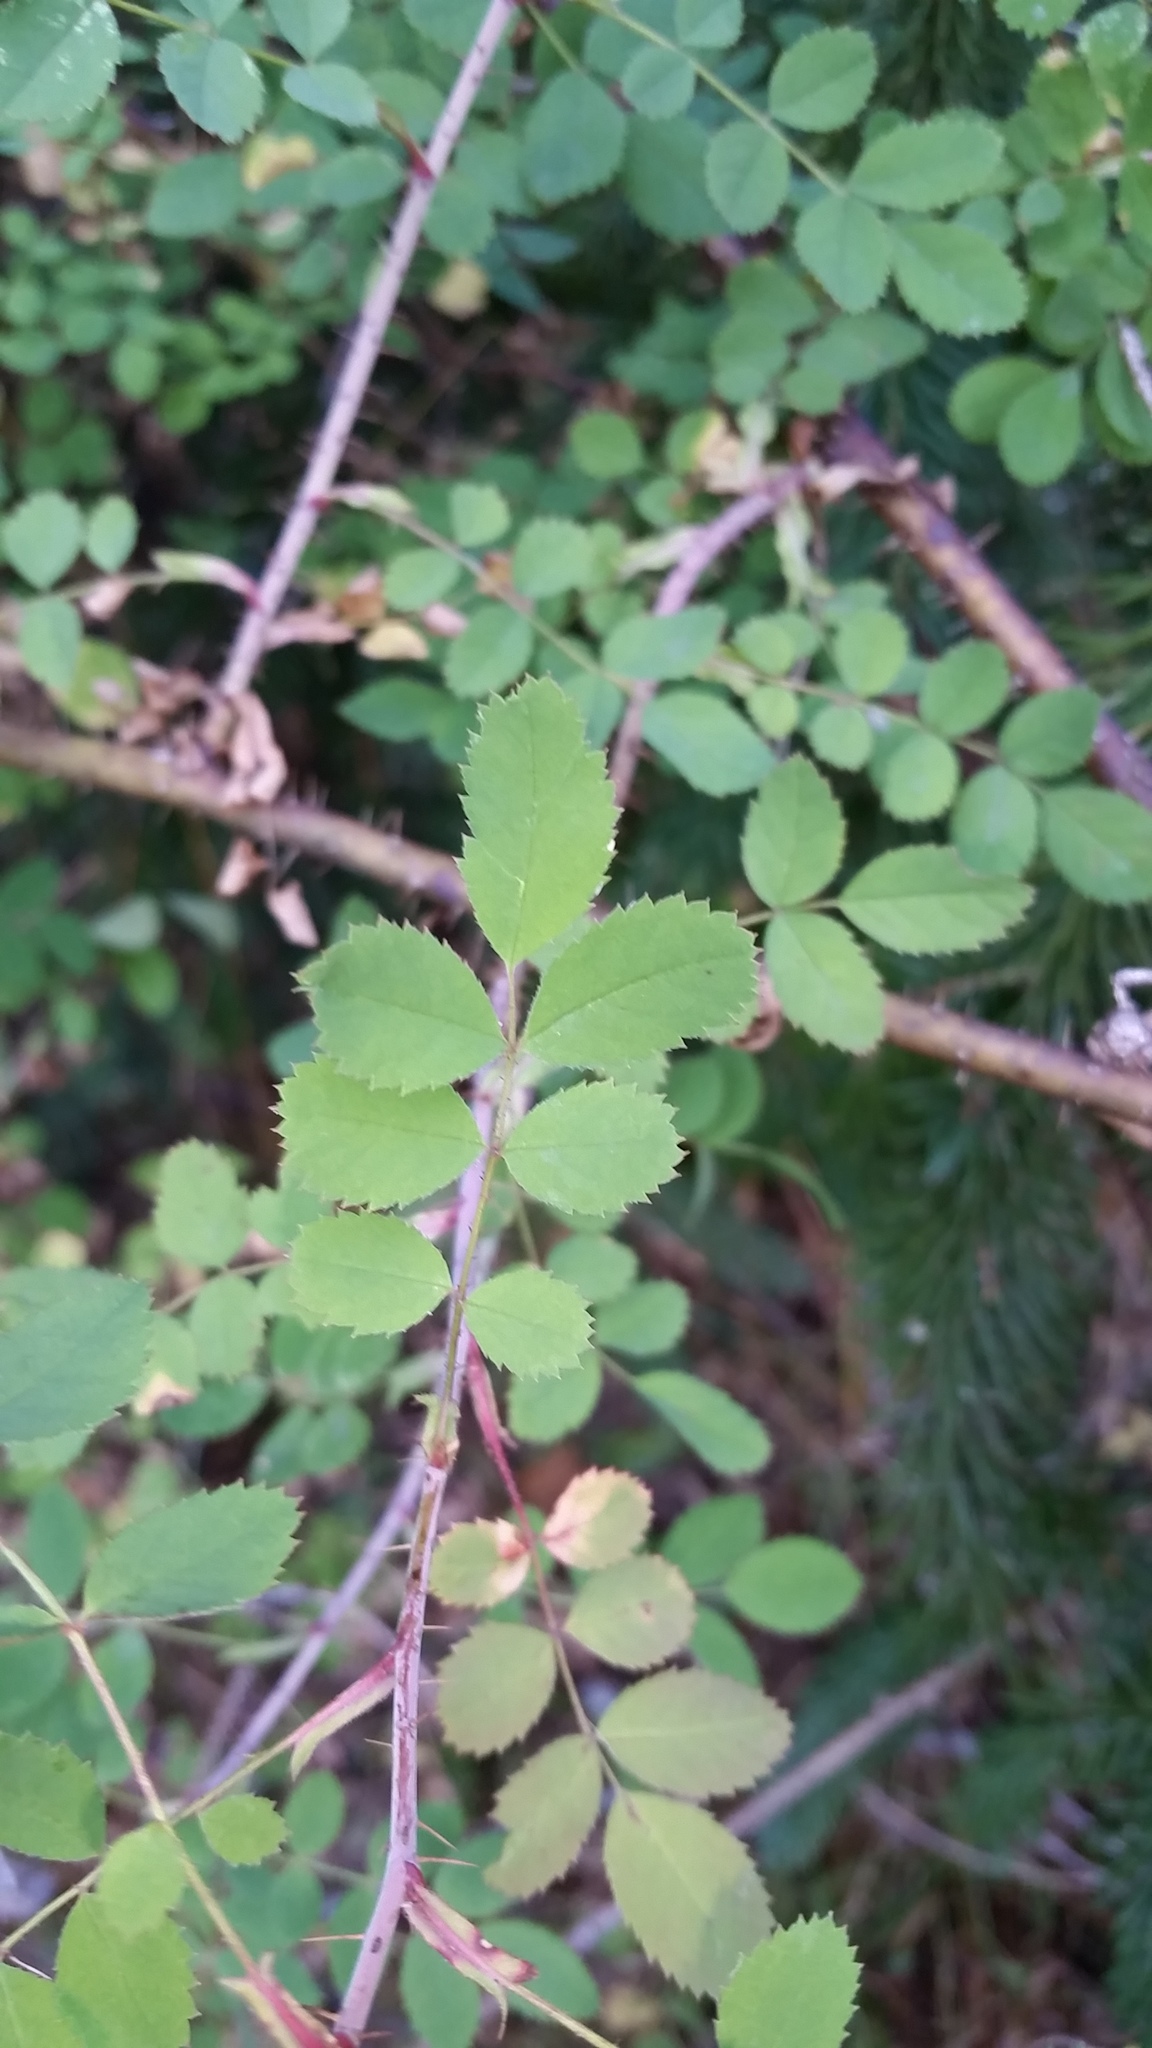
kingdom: Plantae
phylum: Tracheophyta
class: Magnoliopsida
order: Rosales
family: Rosaceae
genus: Rosa
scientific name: Rosa gymnocarpa
